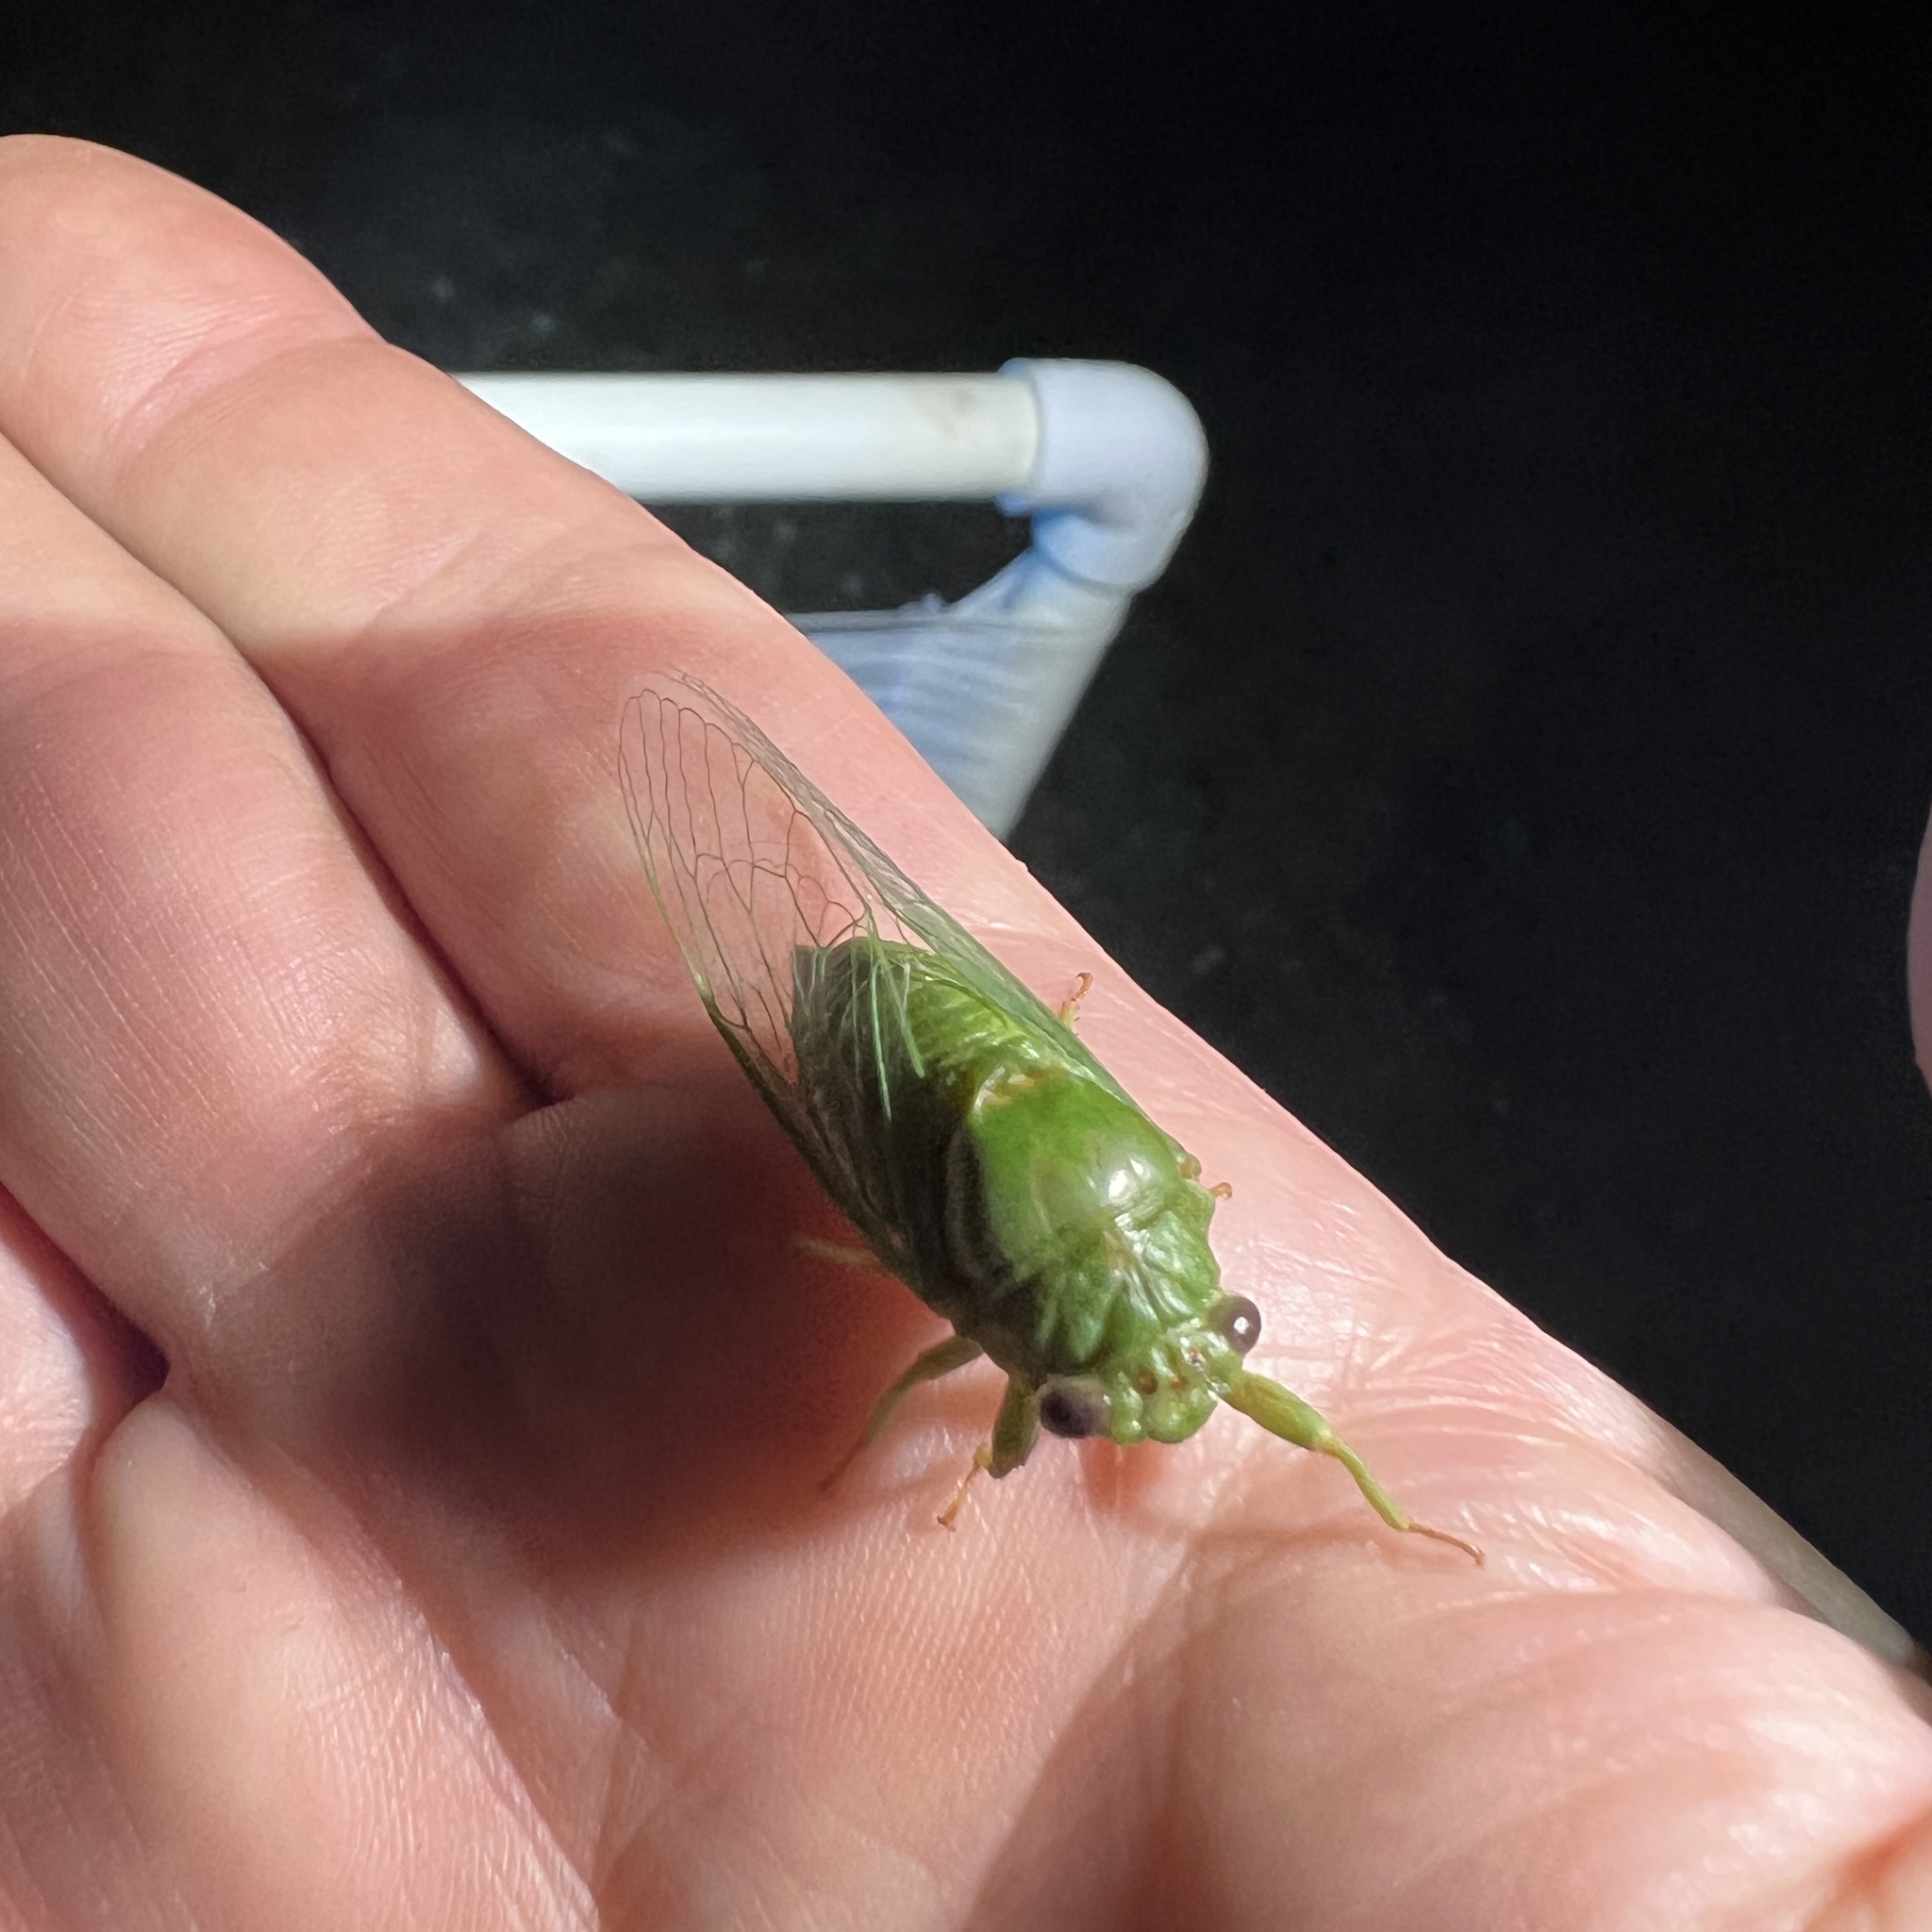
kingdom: Animalia
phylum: Arthropoda
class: Insecta
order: Hemiptera
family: Cicadidae
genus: Glaucopsaltria
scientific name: Glaucopsaltria viridis
